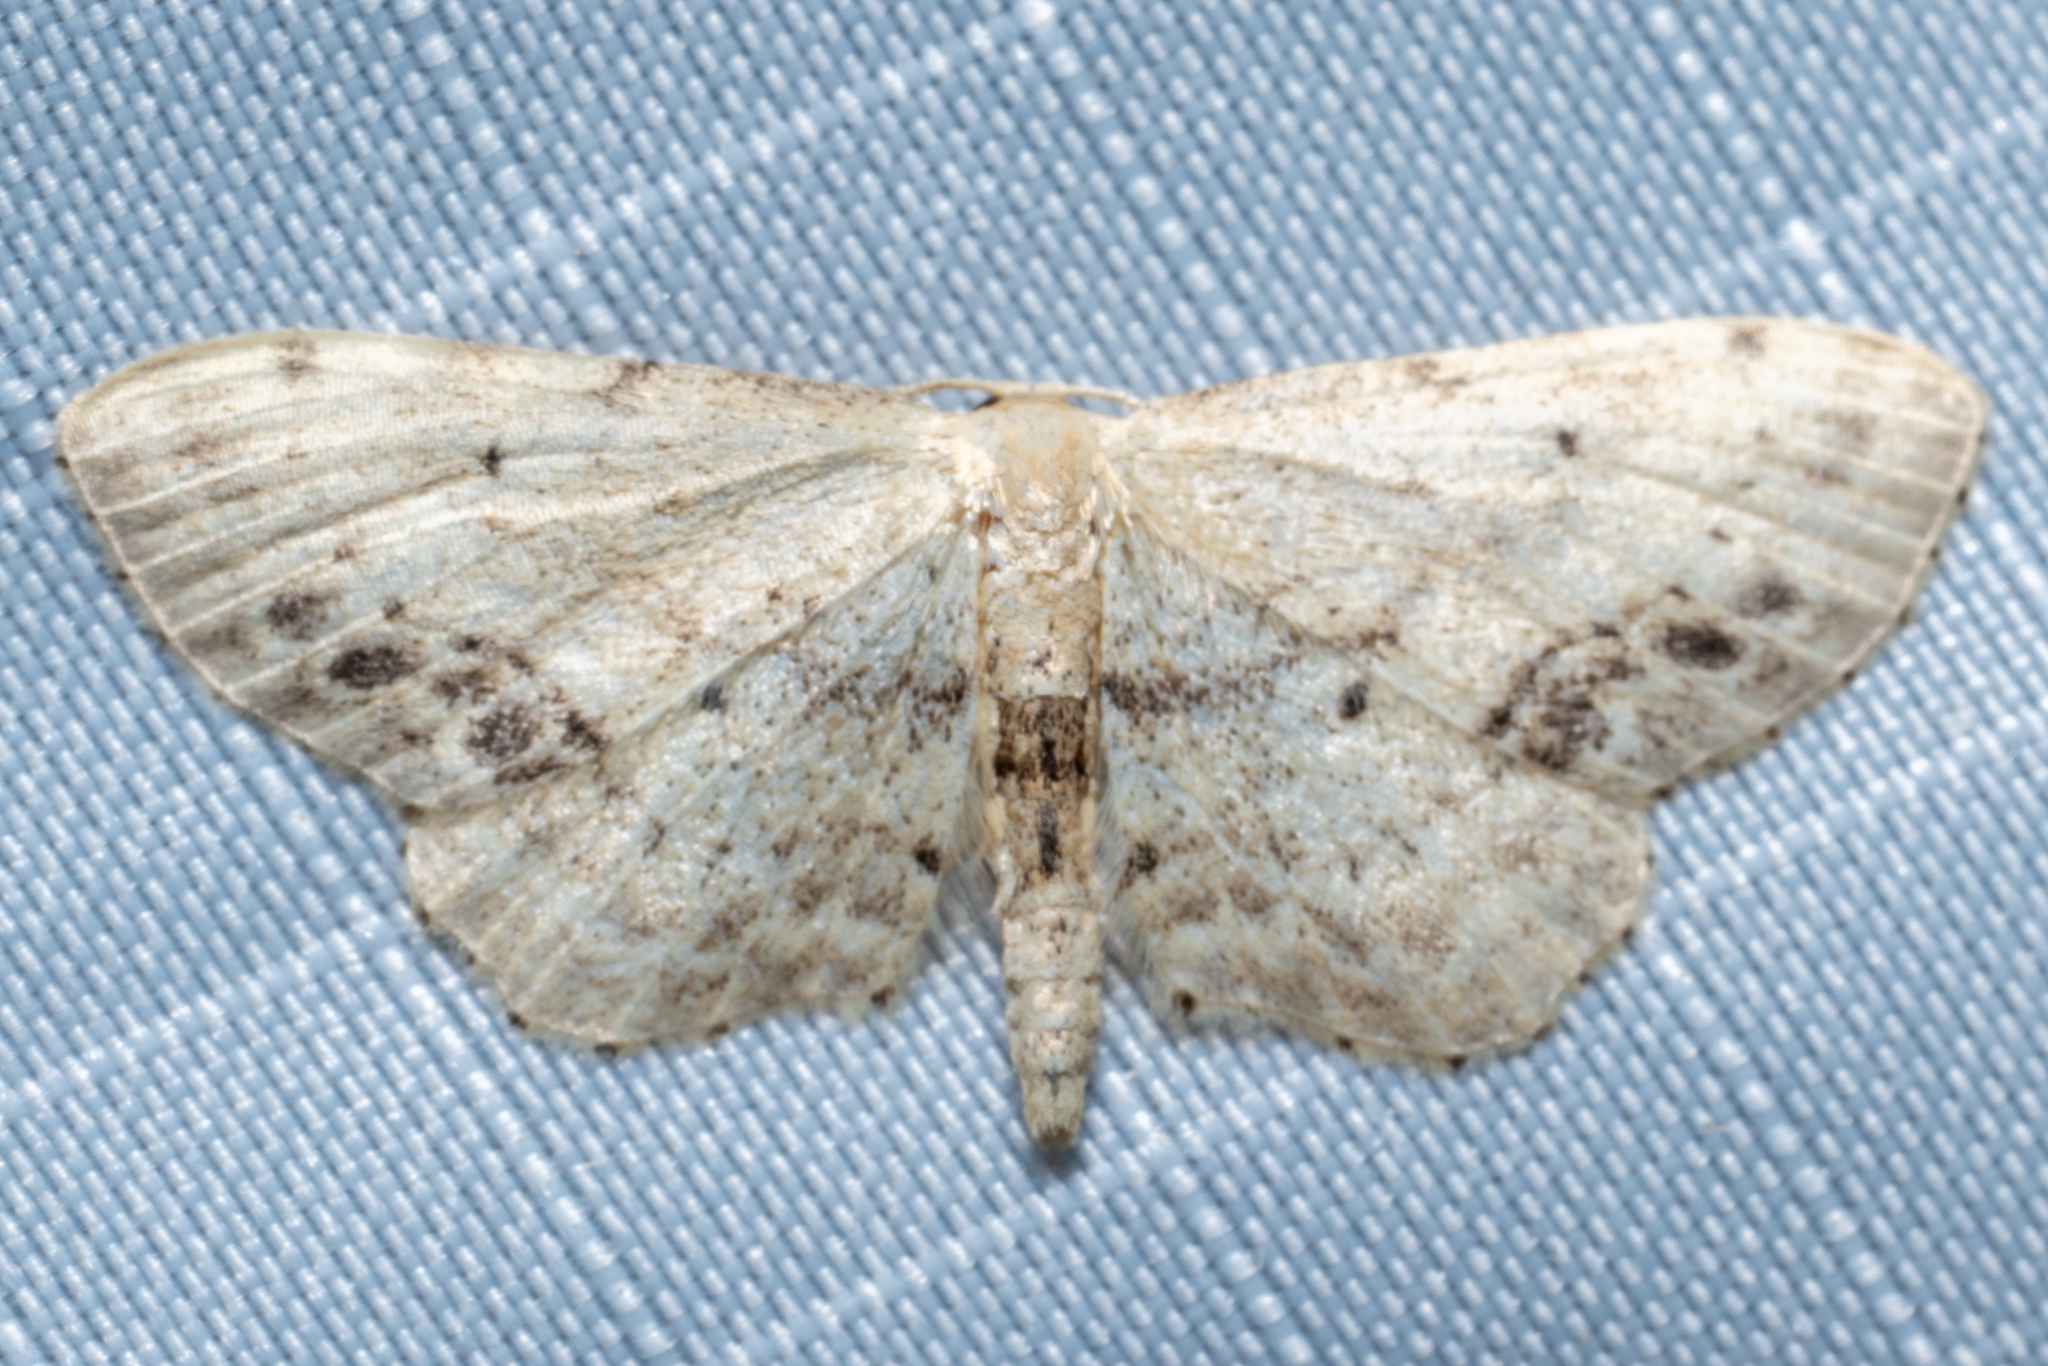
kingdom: Animalia
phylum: Arthropoda
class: Insecta
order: Lepidoptera
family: Geometridae
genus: Idaea
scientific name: Idaea dimidiata
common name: Single-dotted wave
